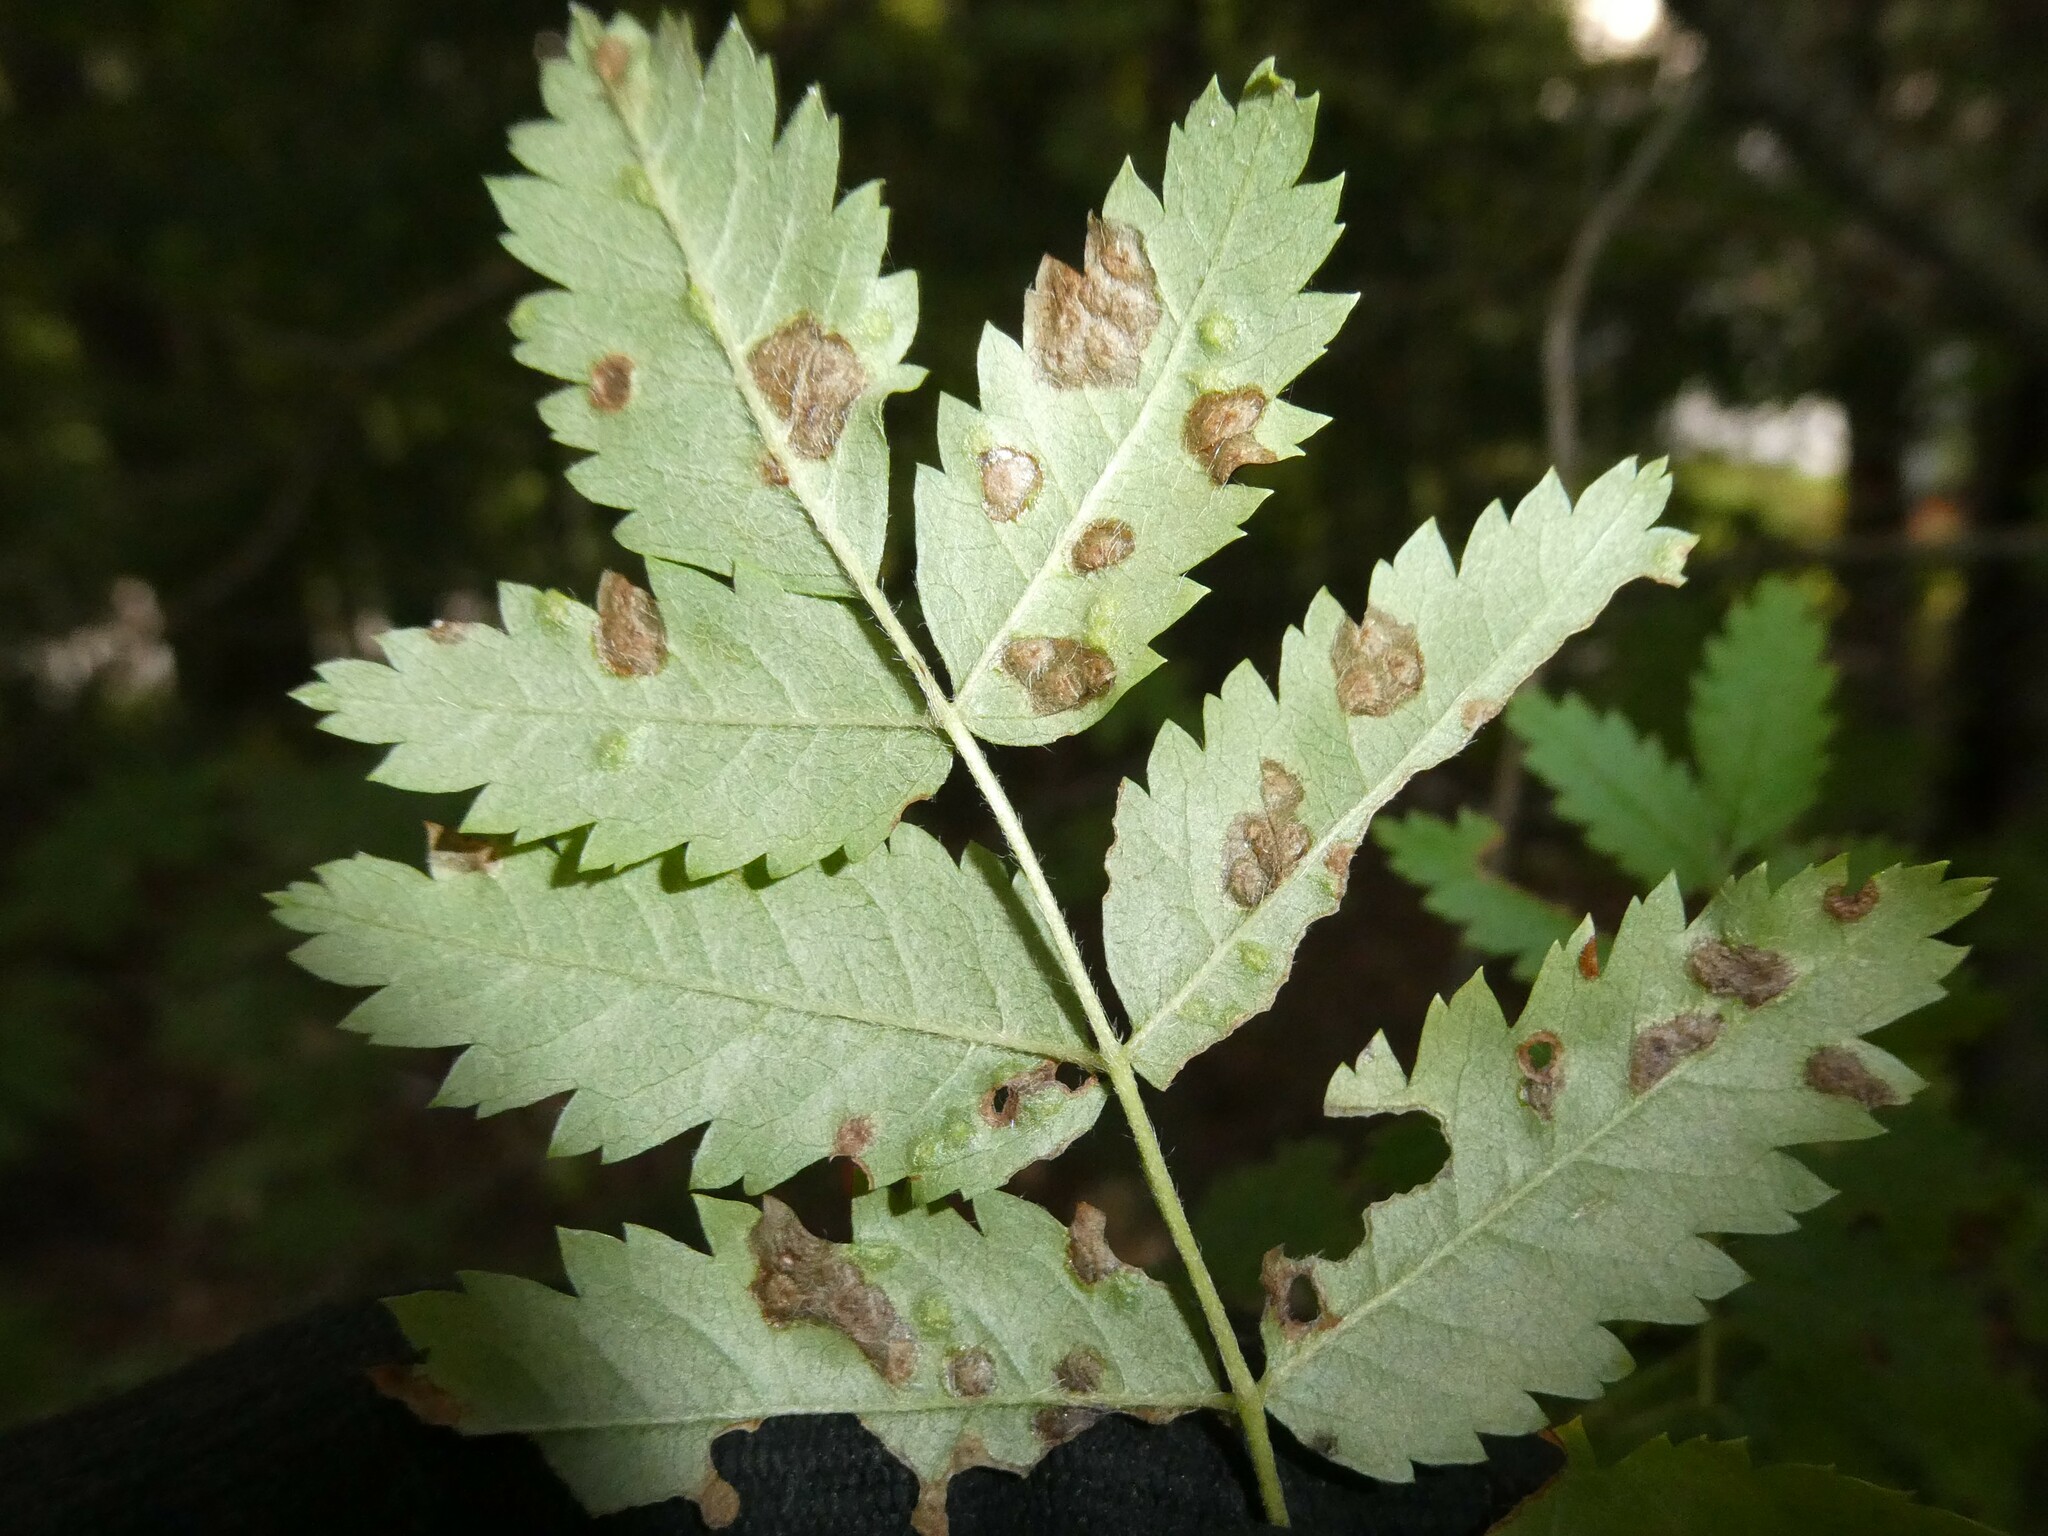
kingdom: Animalia
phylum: Arthropoda
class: Arachnida
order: Trombidiformes
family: Eriophyidae
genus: Eriophyes
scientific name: Eriophyes sorbi
